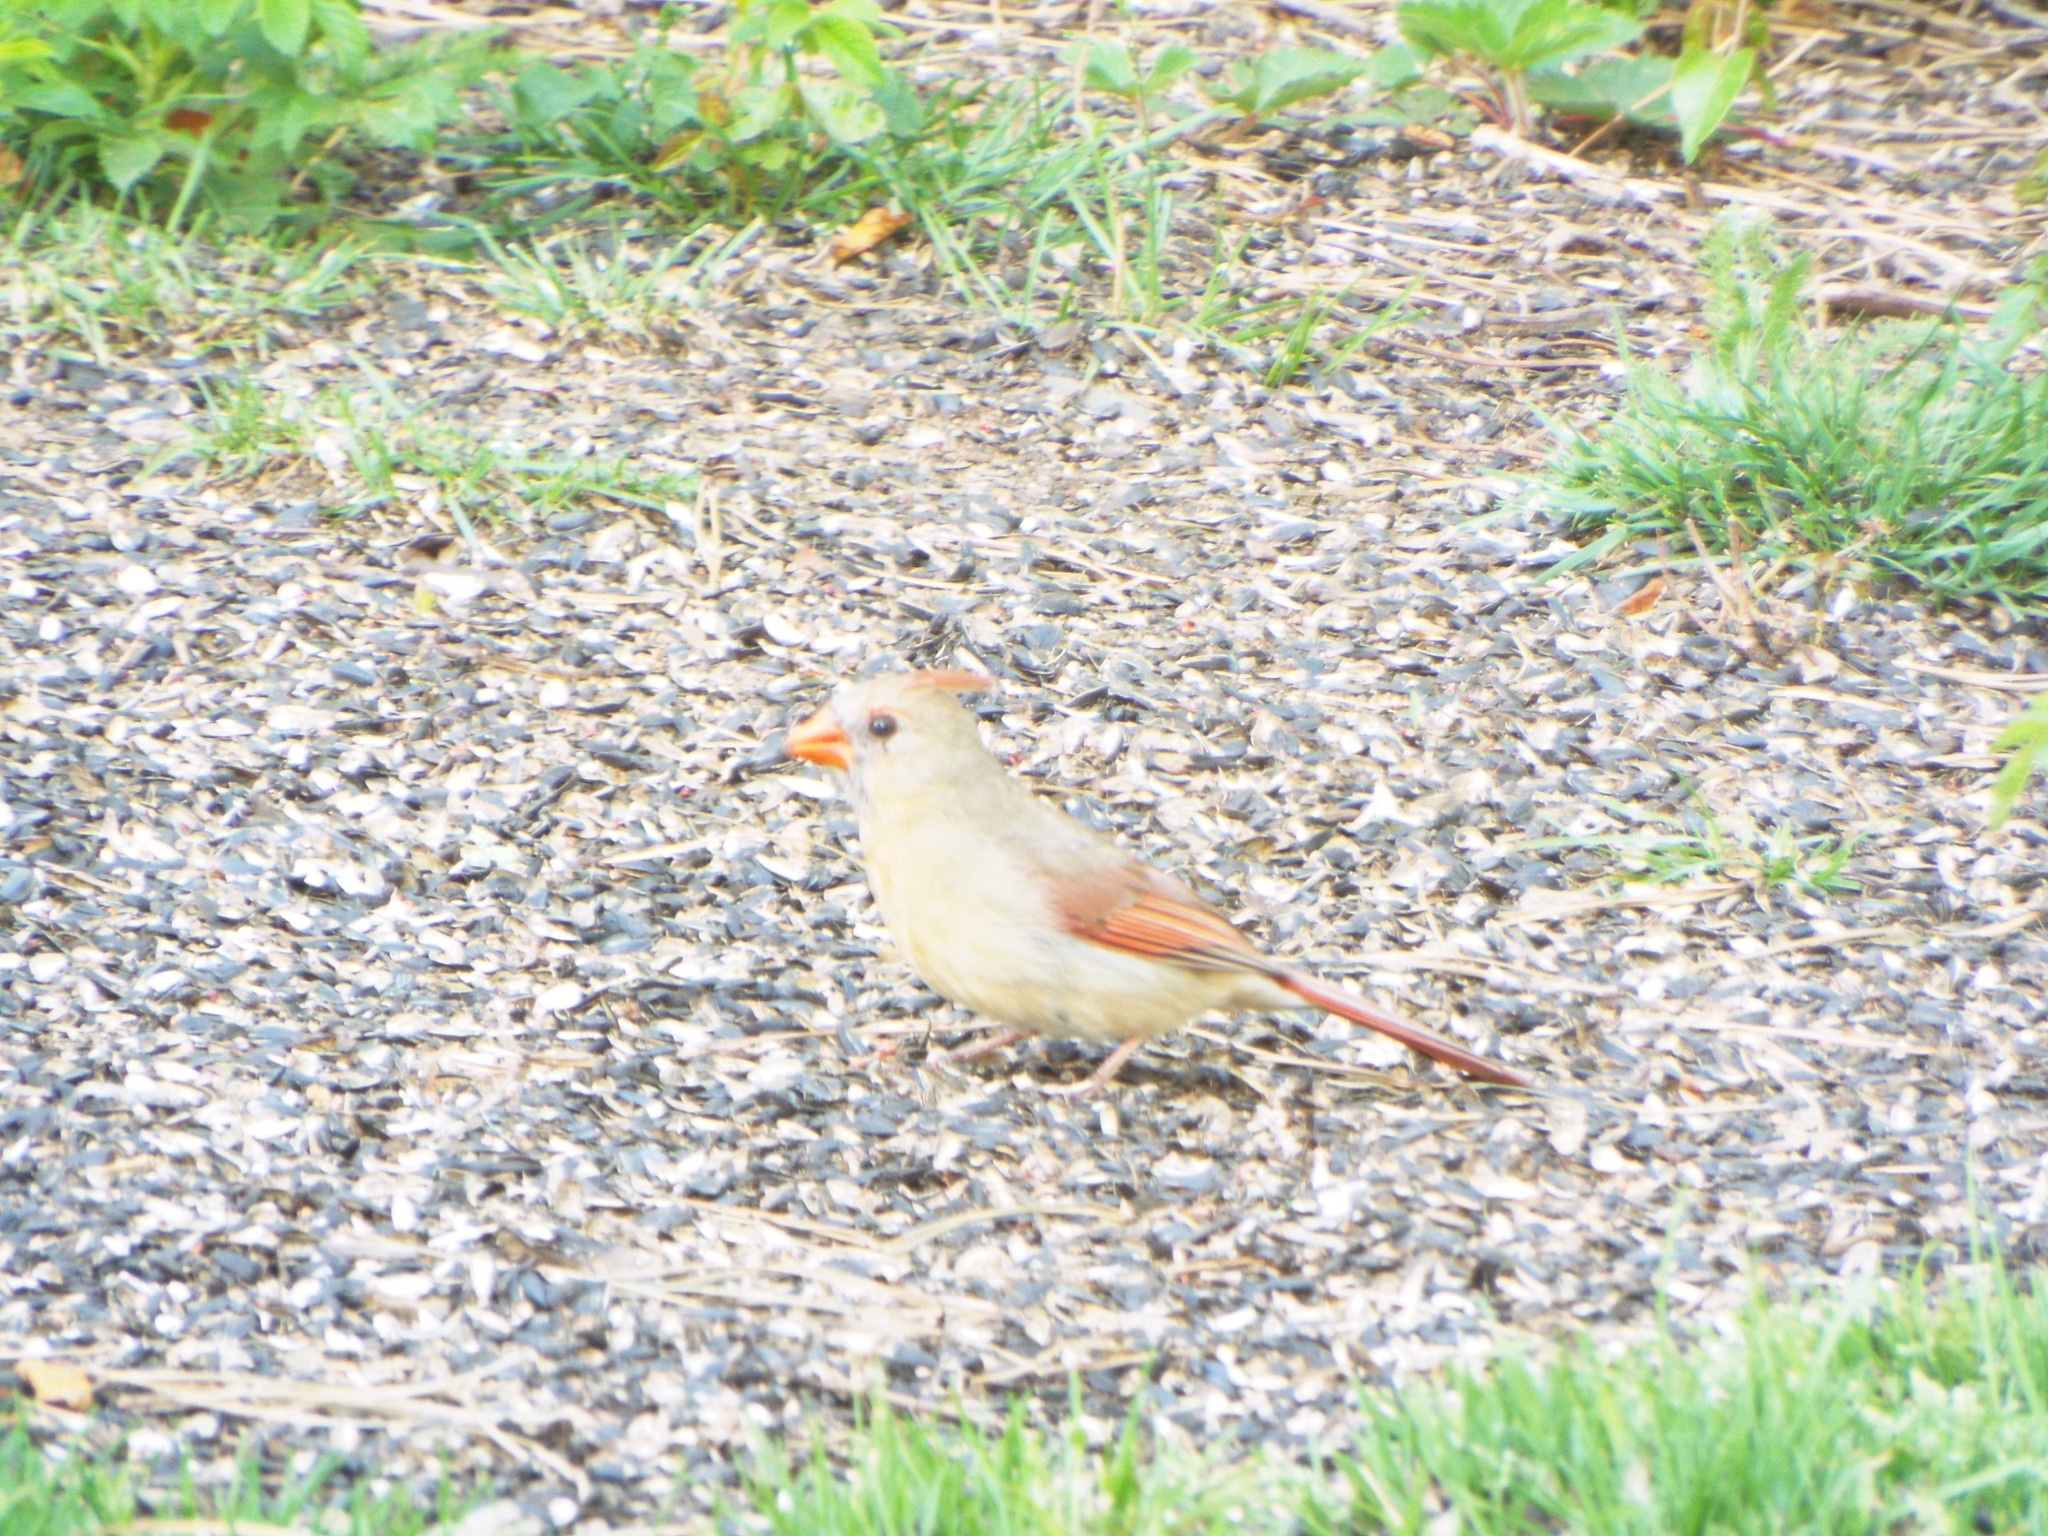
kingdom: Animalia
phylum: Chordata
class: Aves
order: Passeriformes
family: Cardinalidae
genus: Cardinalis
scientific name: Cardinalis cardinalis
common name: Northern cardinal
